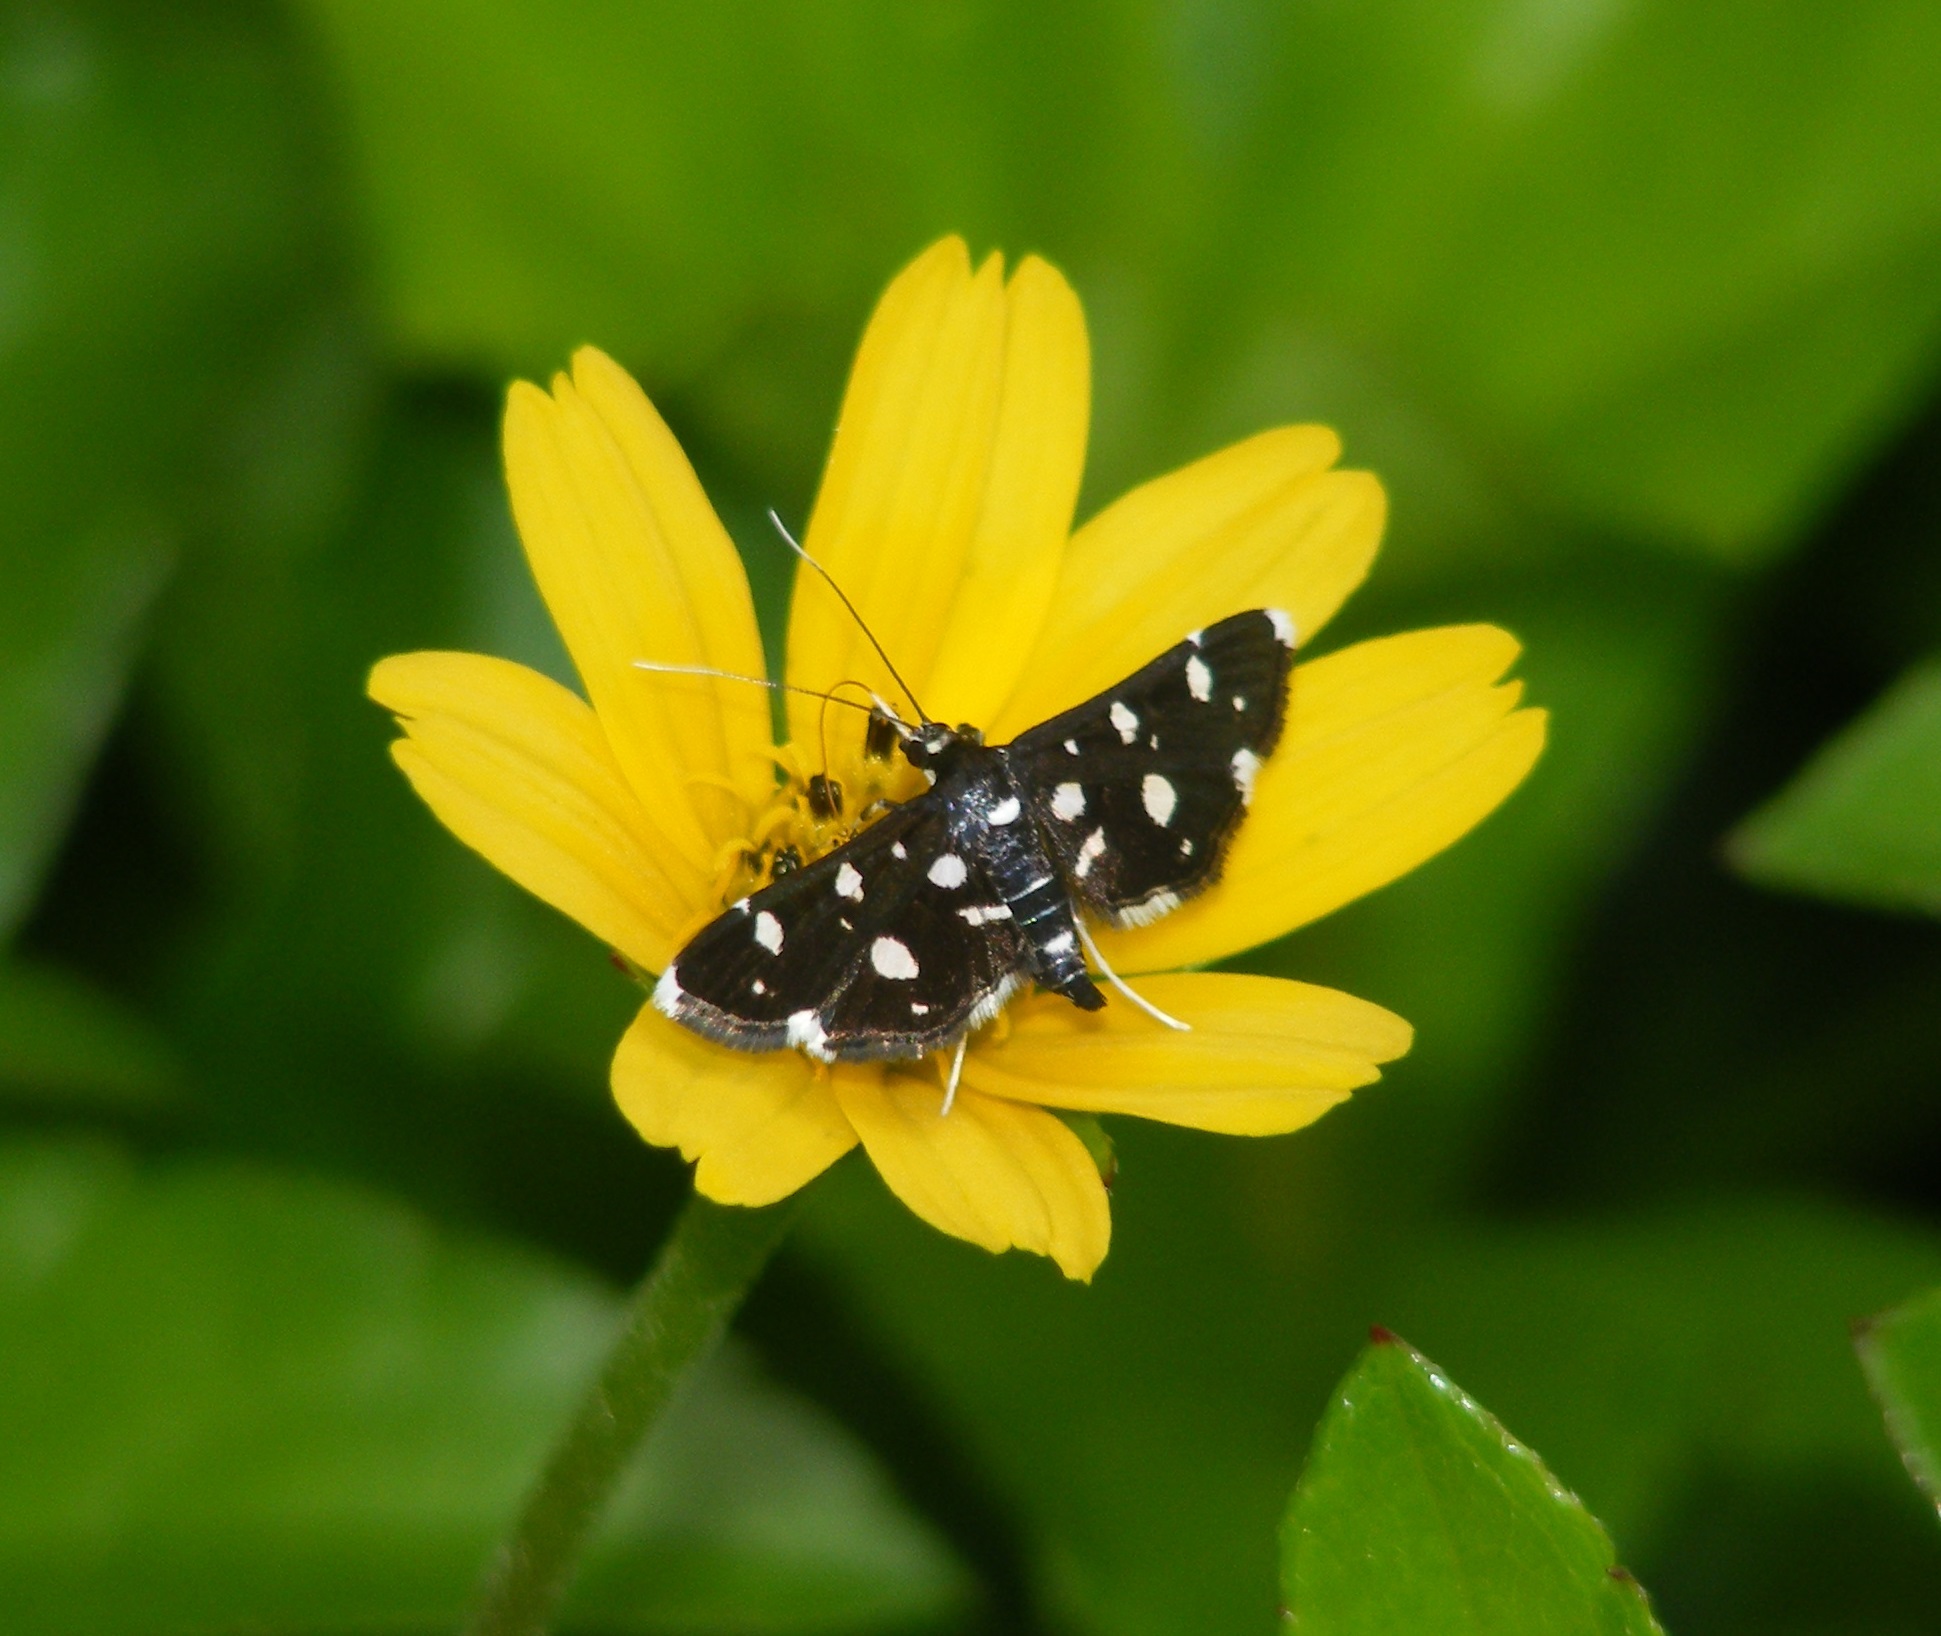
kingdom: Animalia
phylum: Arthropoda
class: Insecta
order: Lepidoptera
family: Crambidae
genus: Bocchoris
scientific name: Bocchoris inspersalis
